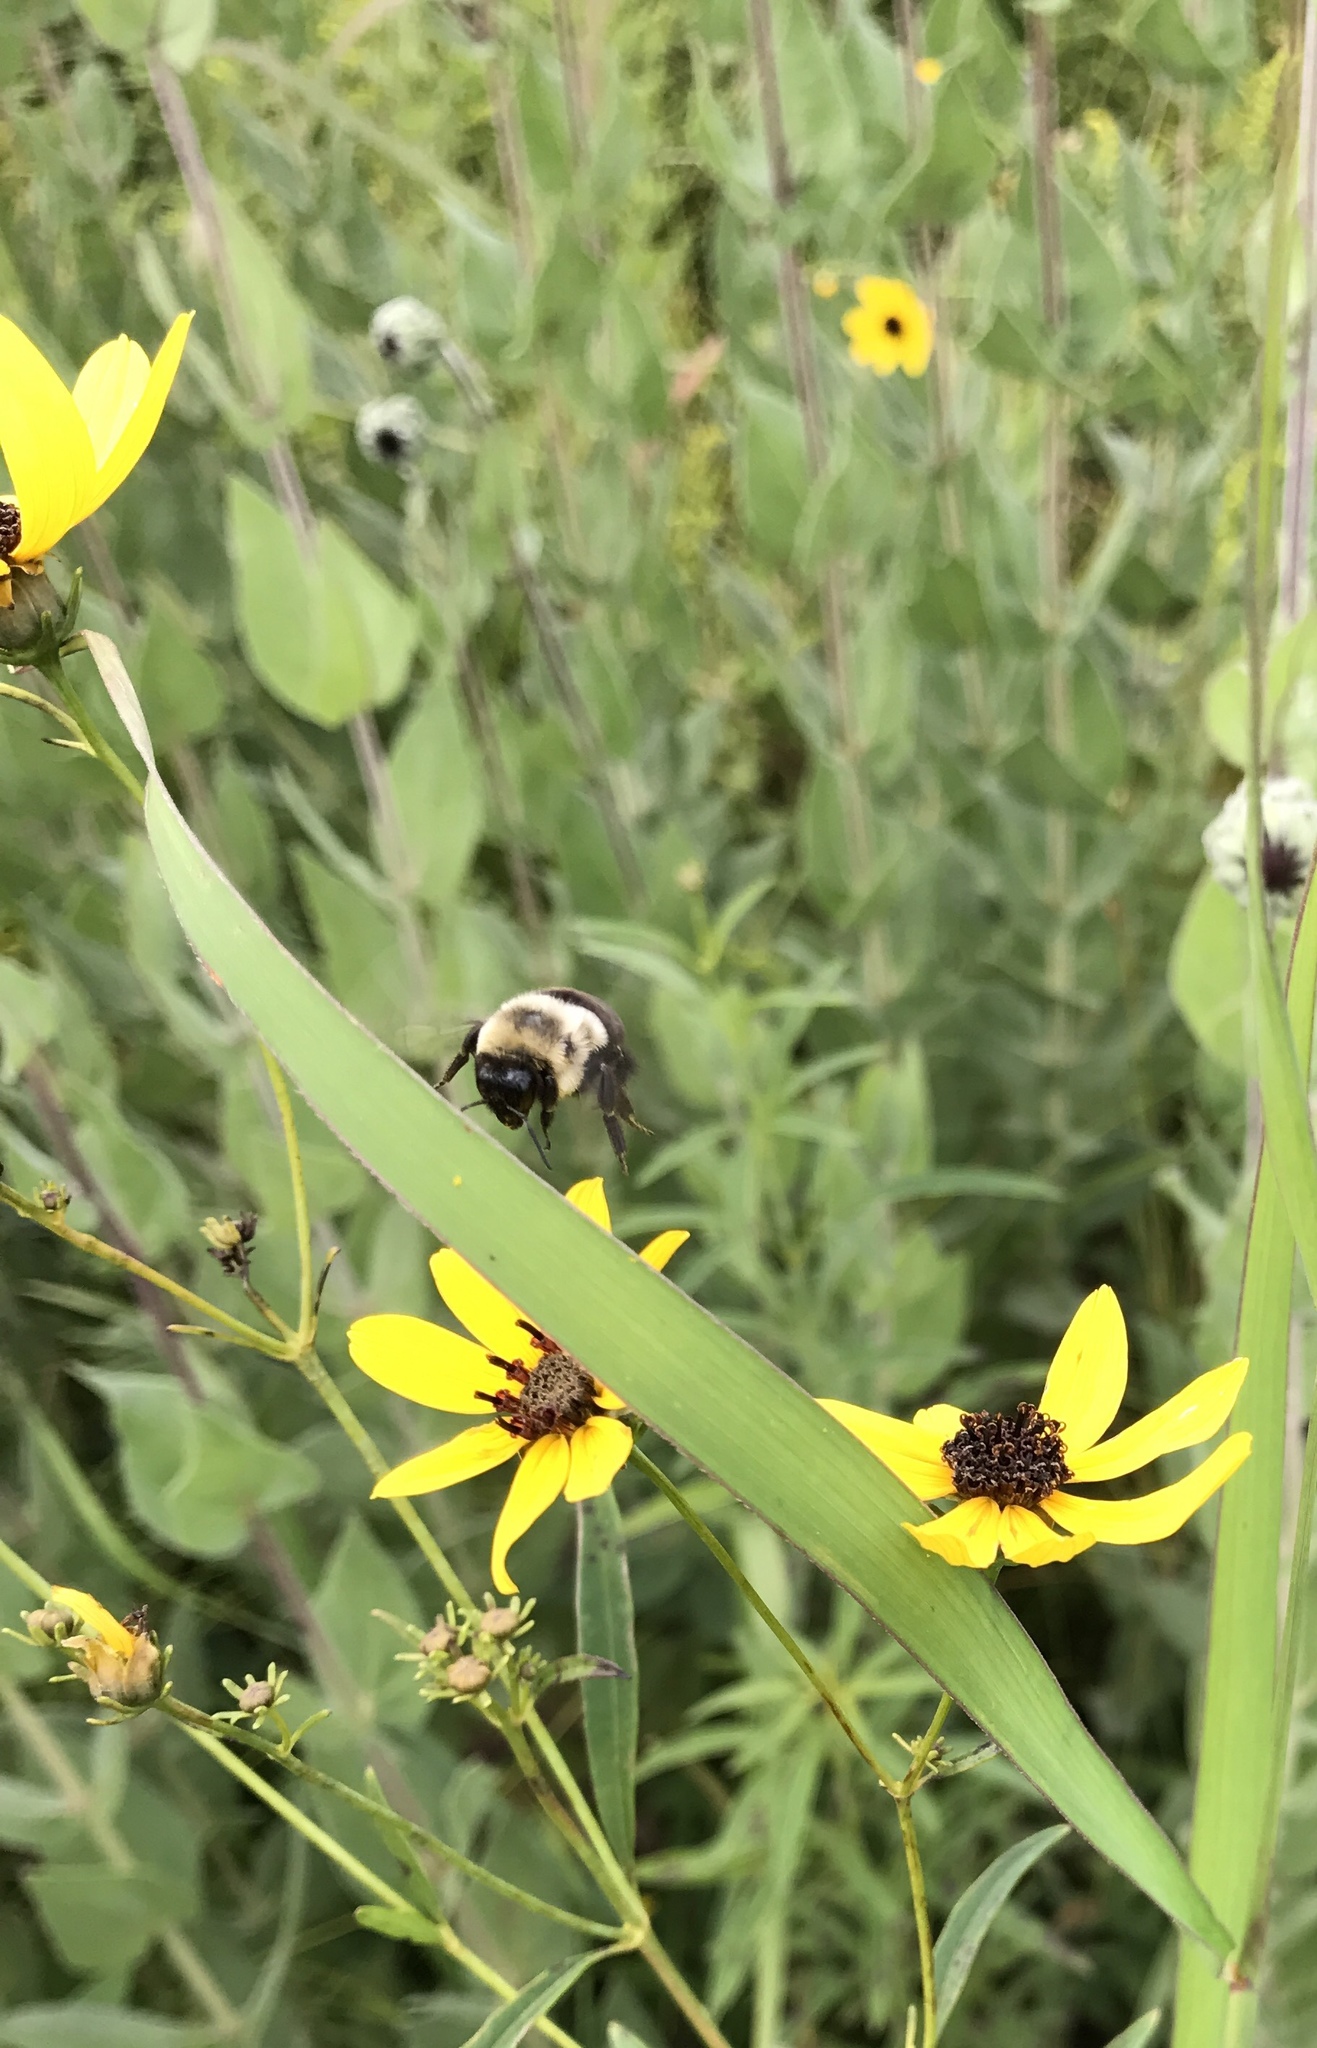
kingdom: Animalia
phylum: Arthropoda
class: Insecta
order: Hymenoptera
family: Apidae
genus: Bombus
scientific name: Bombus impatiens
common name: Common eastern bumble bee
